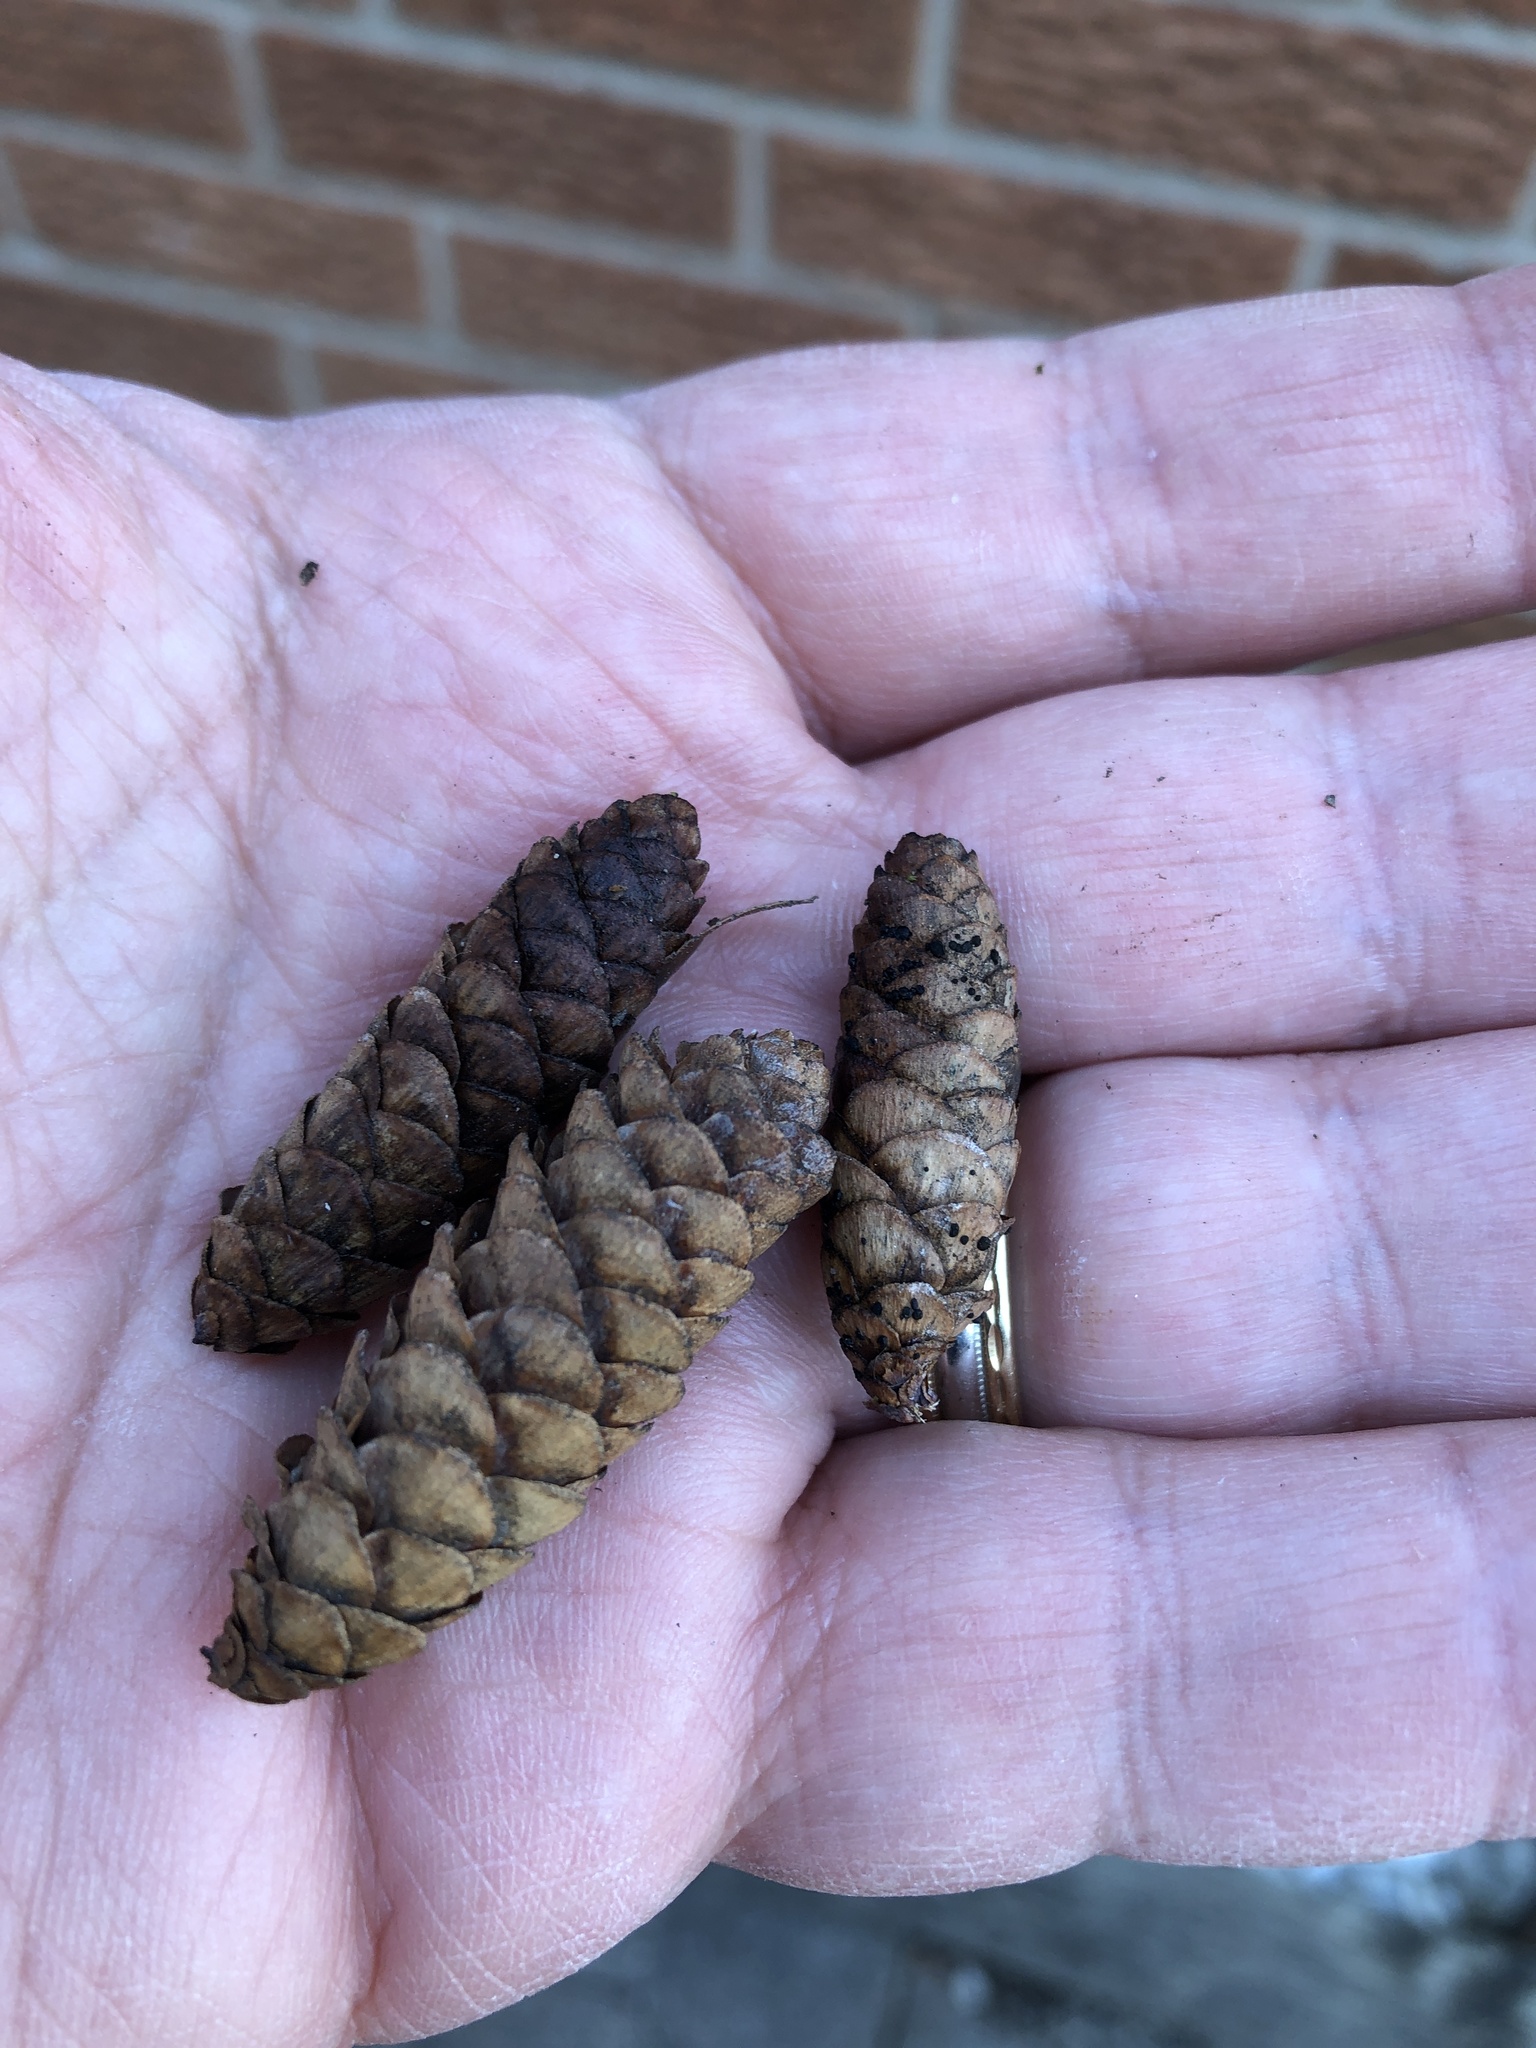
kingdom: Plantae
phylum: Tracheophyta
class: Pinopsida
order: Pinales
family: Pinaceae
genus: Picea
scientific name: Picea glauca
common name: White spruce
